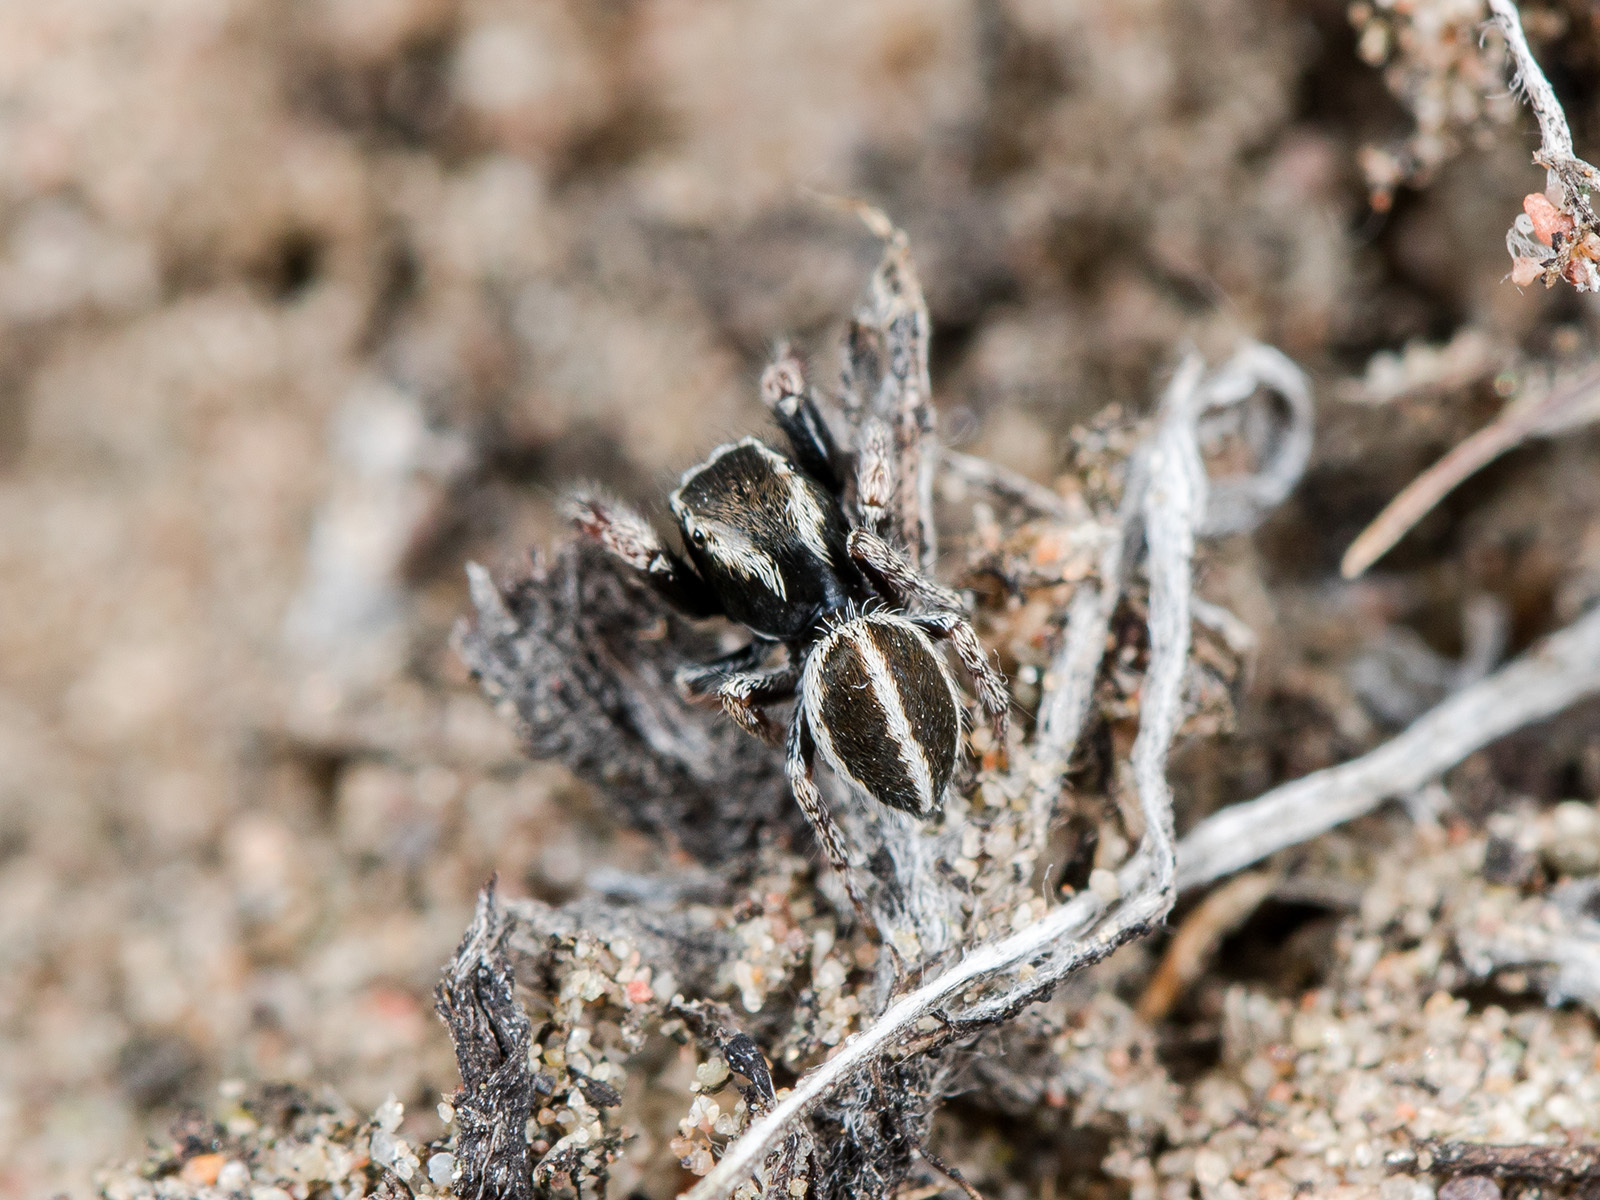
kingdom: Animalia
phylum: Arthropoda
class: Arachnida
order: Araneae
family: Salticidae
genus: Pellenes
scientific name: Pellenes epularis
